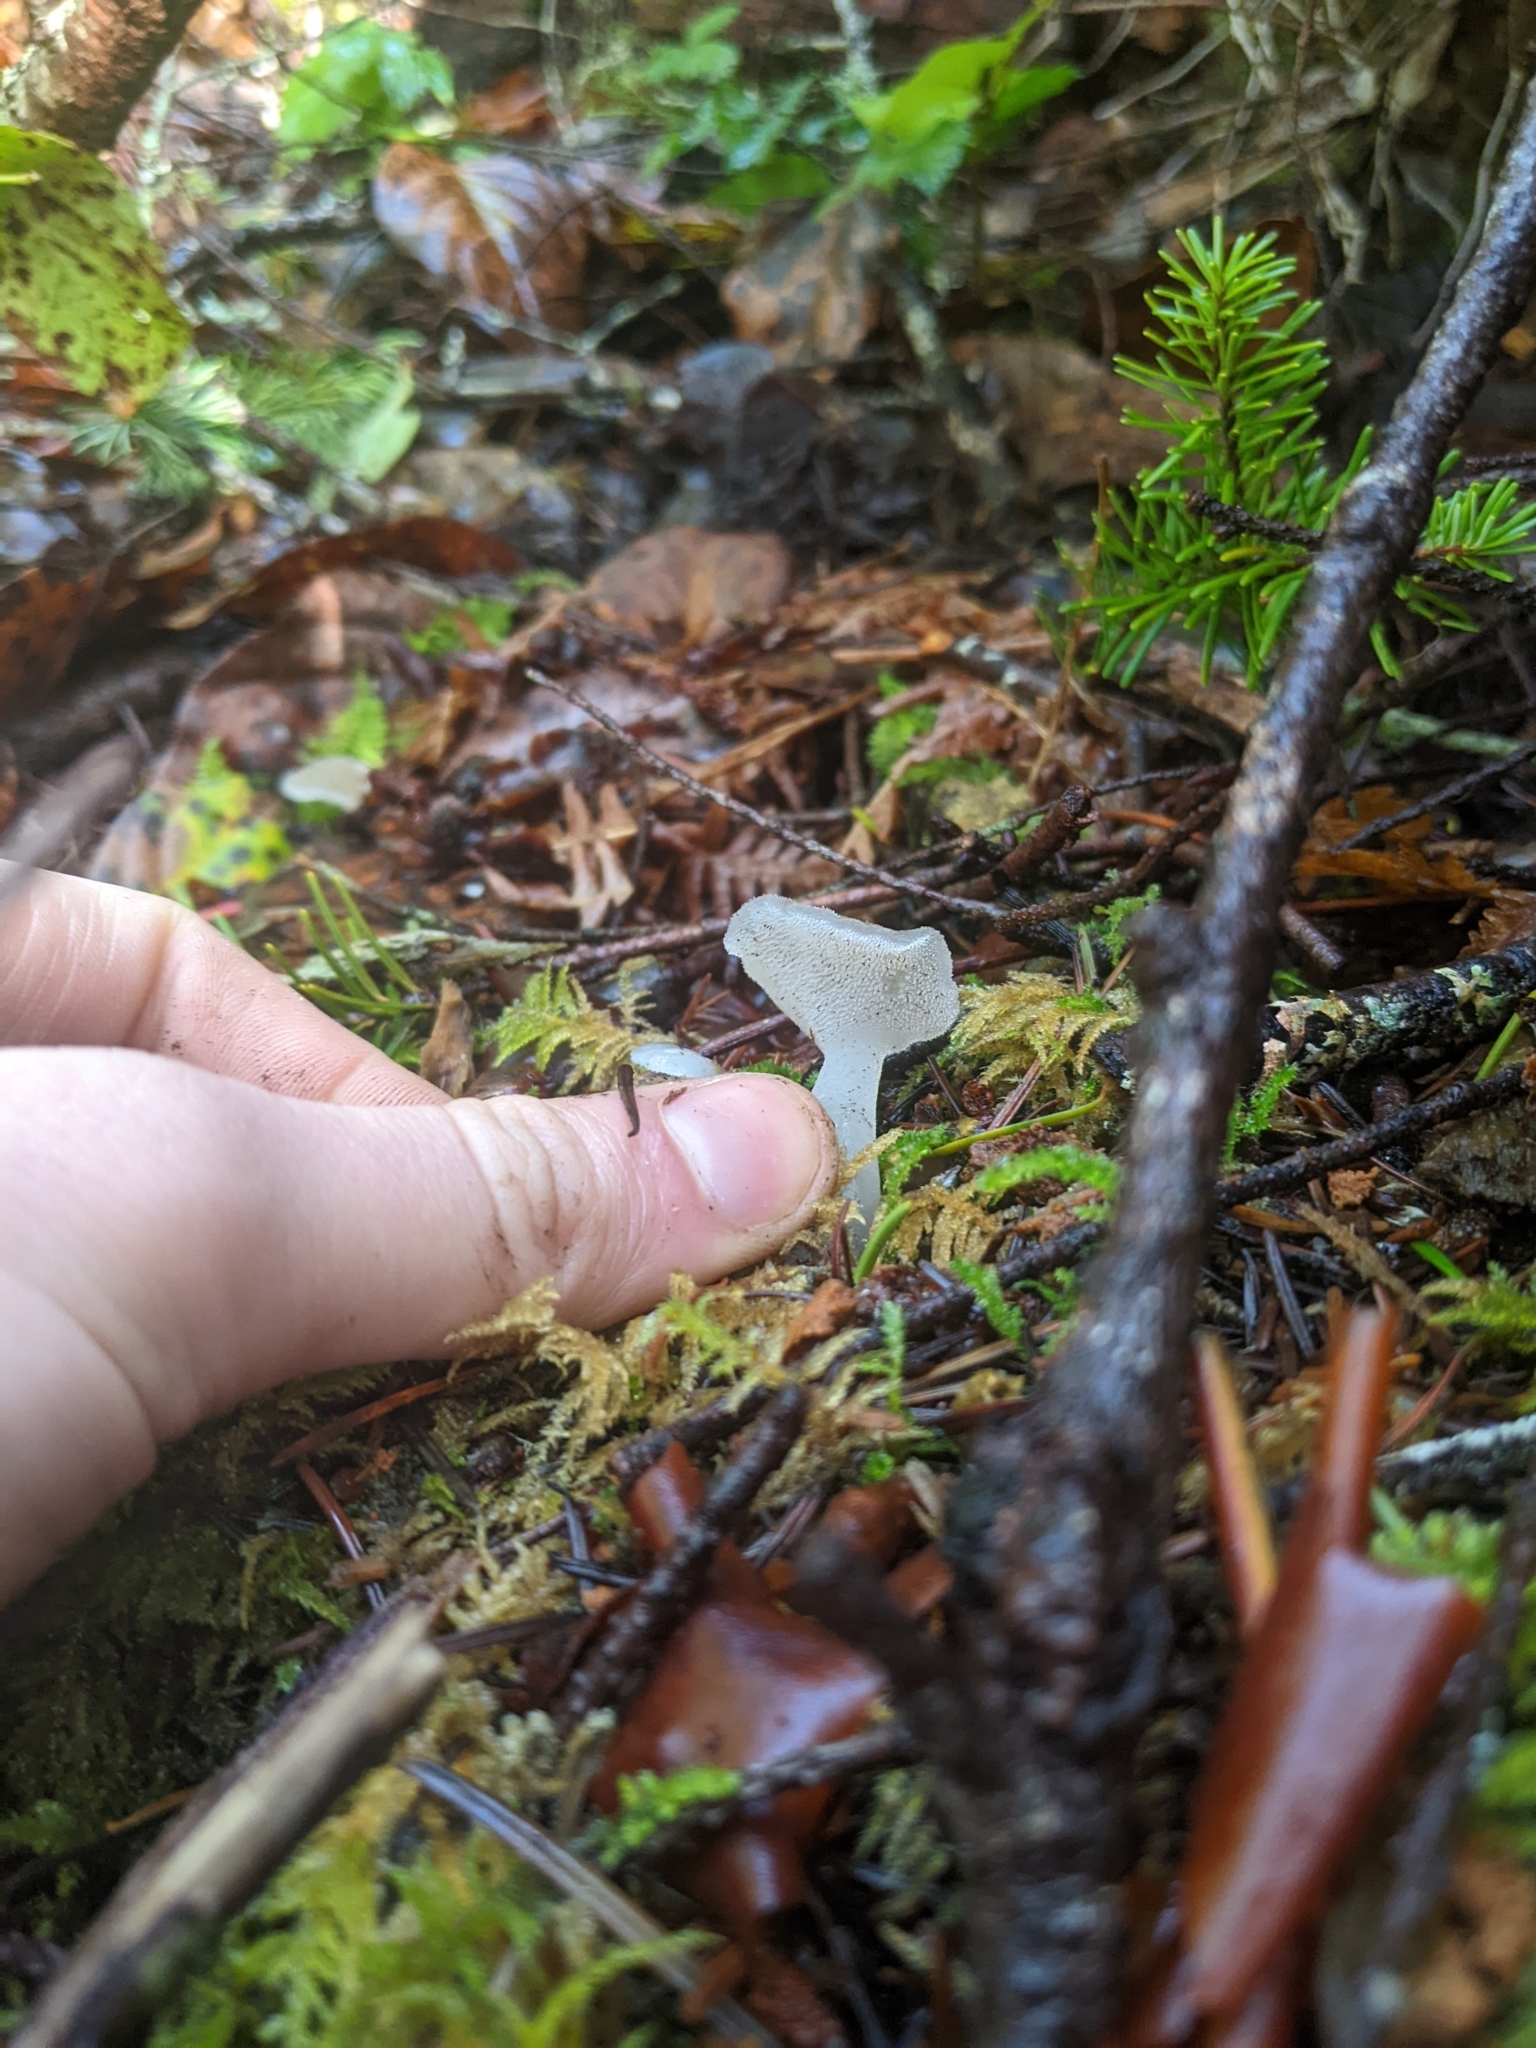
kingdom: Fungi
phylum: Basidiomycota
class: Agaricomycetes
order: Auriculariales
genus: Pseudohydnum
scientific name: Pseudohydnum gelatinosum
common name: Jelly tongue
